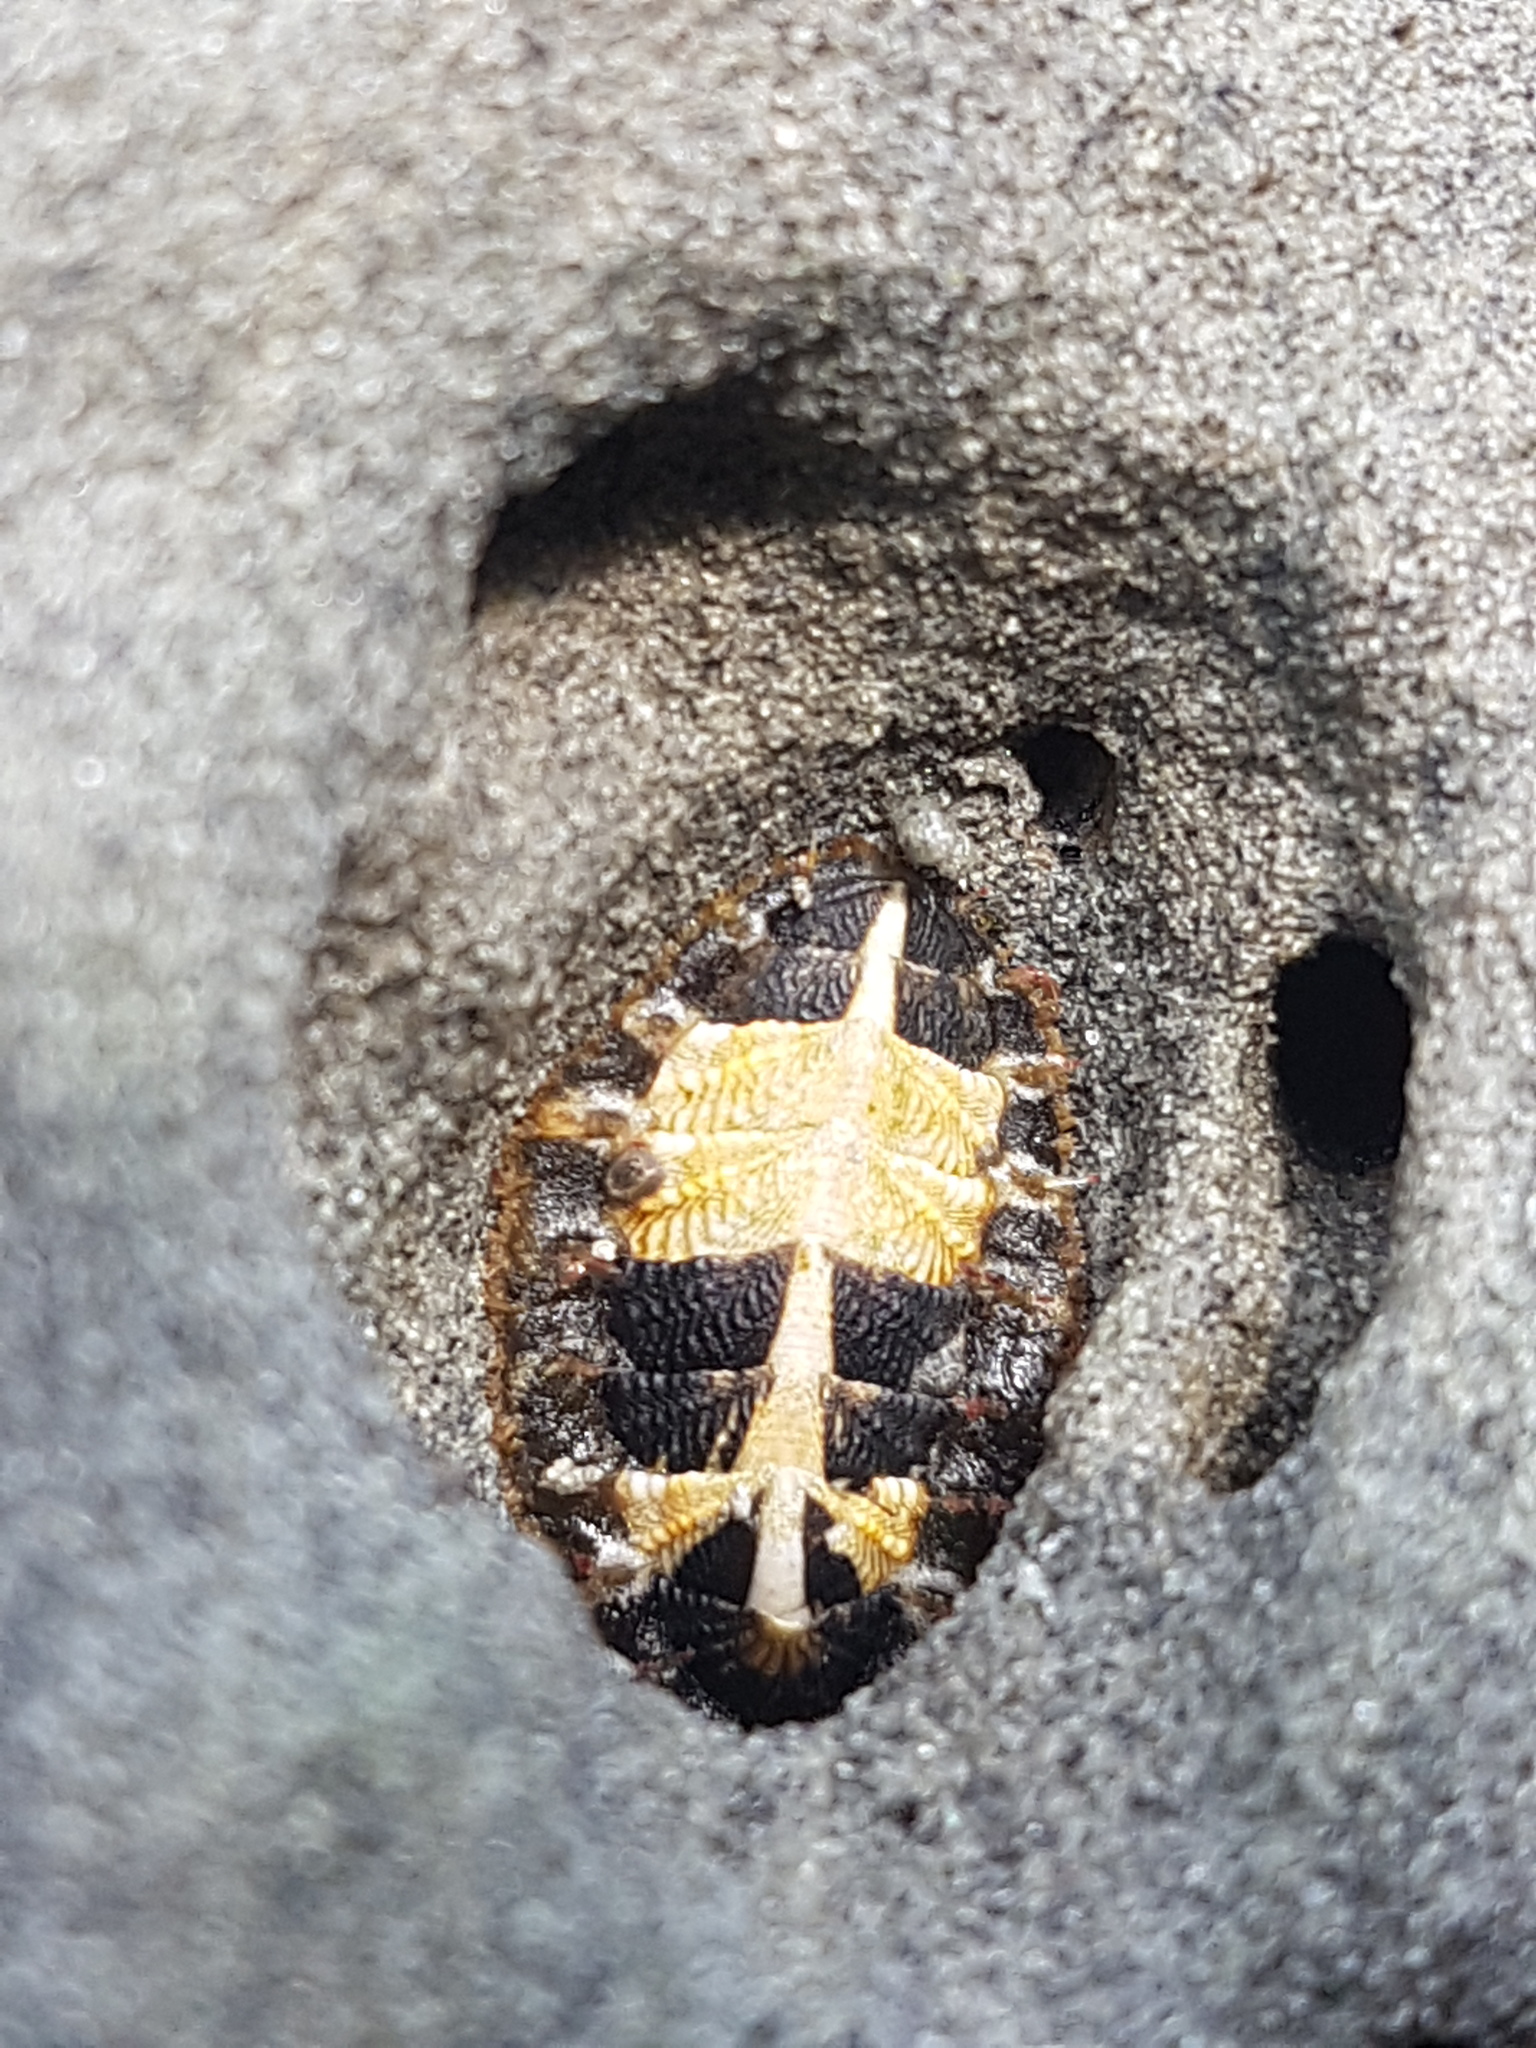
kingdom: Animalia
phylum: Mollusca
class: Polyplacophora
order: Chitonida
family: Mopaliidae
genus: Plaxiphora
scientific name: Plaxiphora caelata
